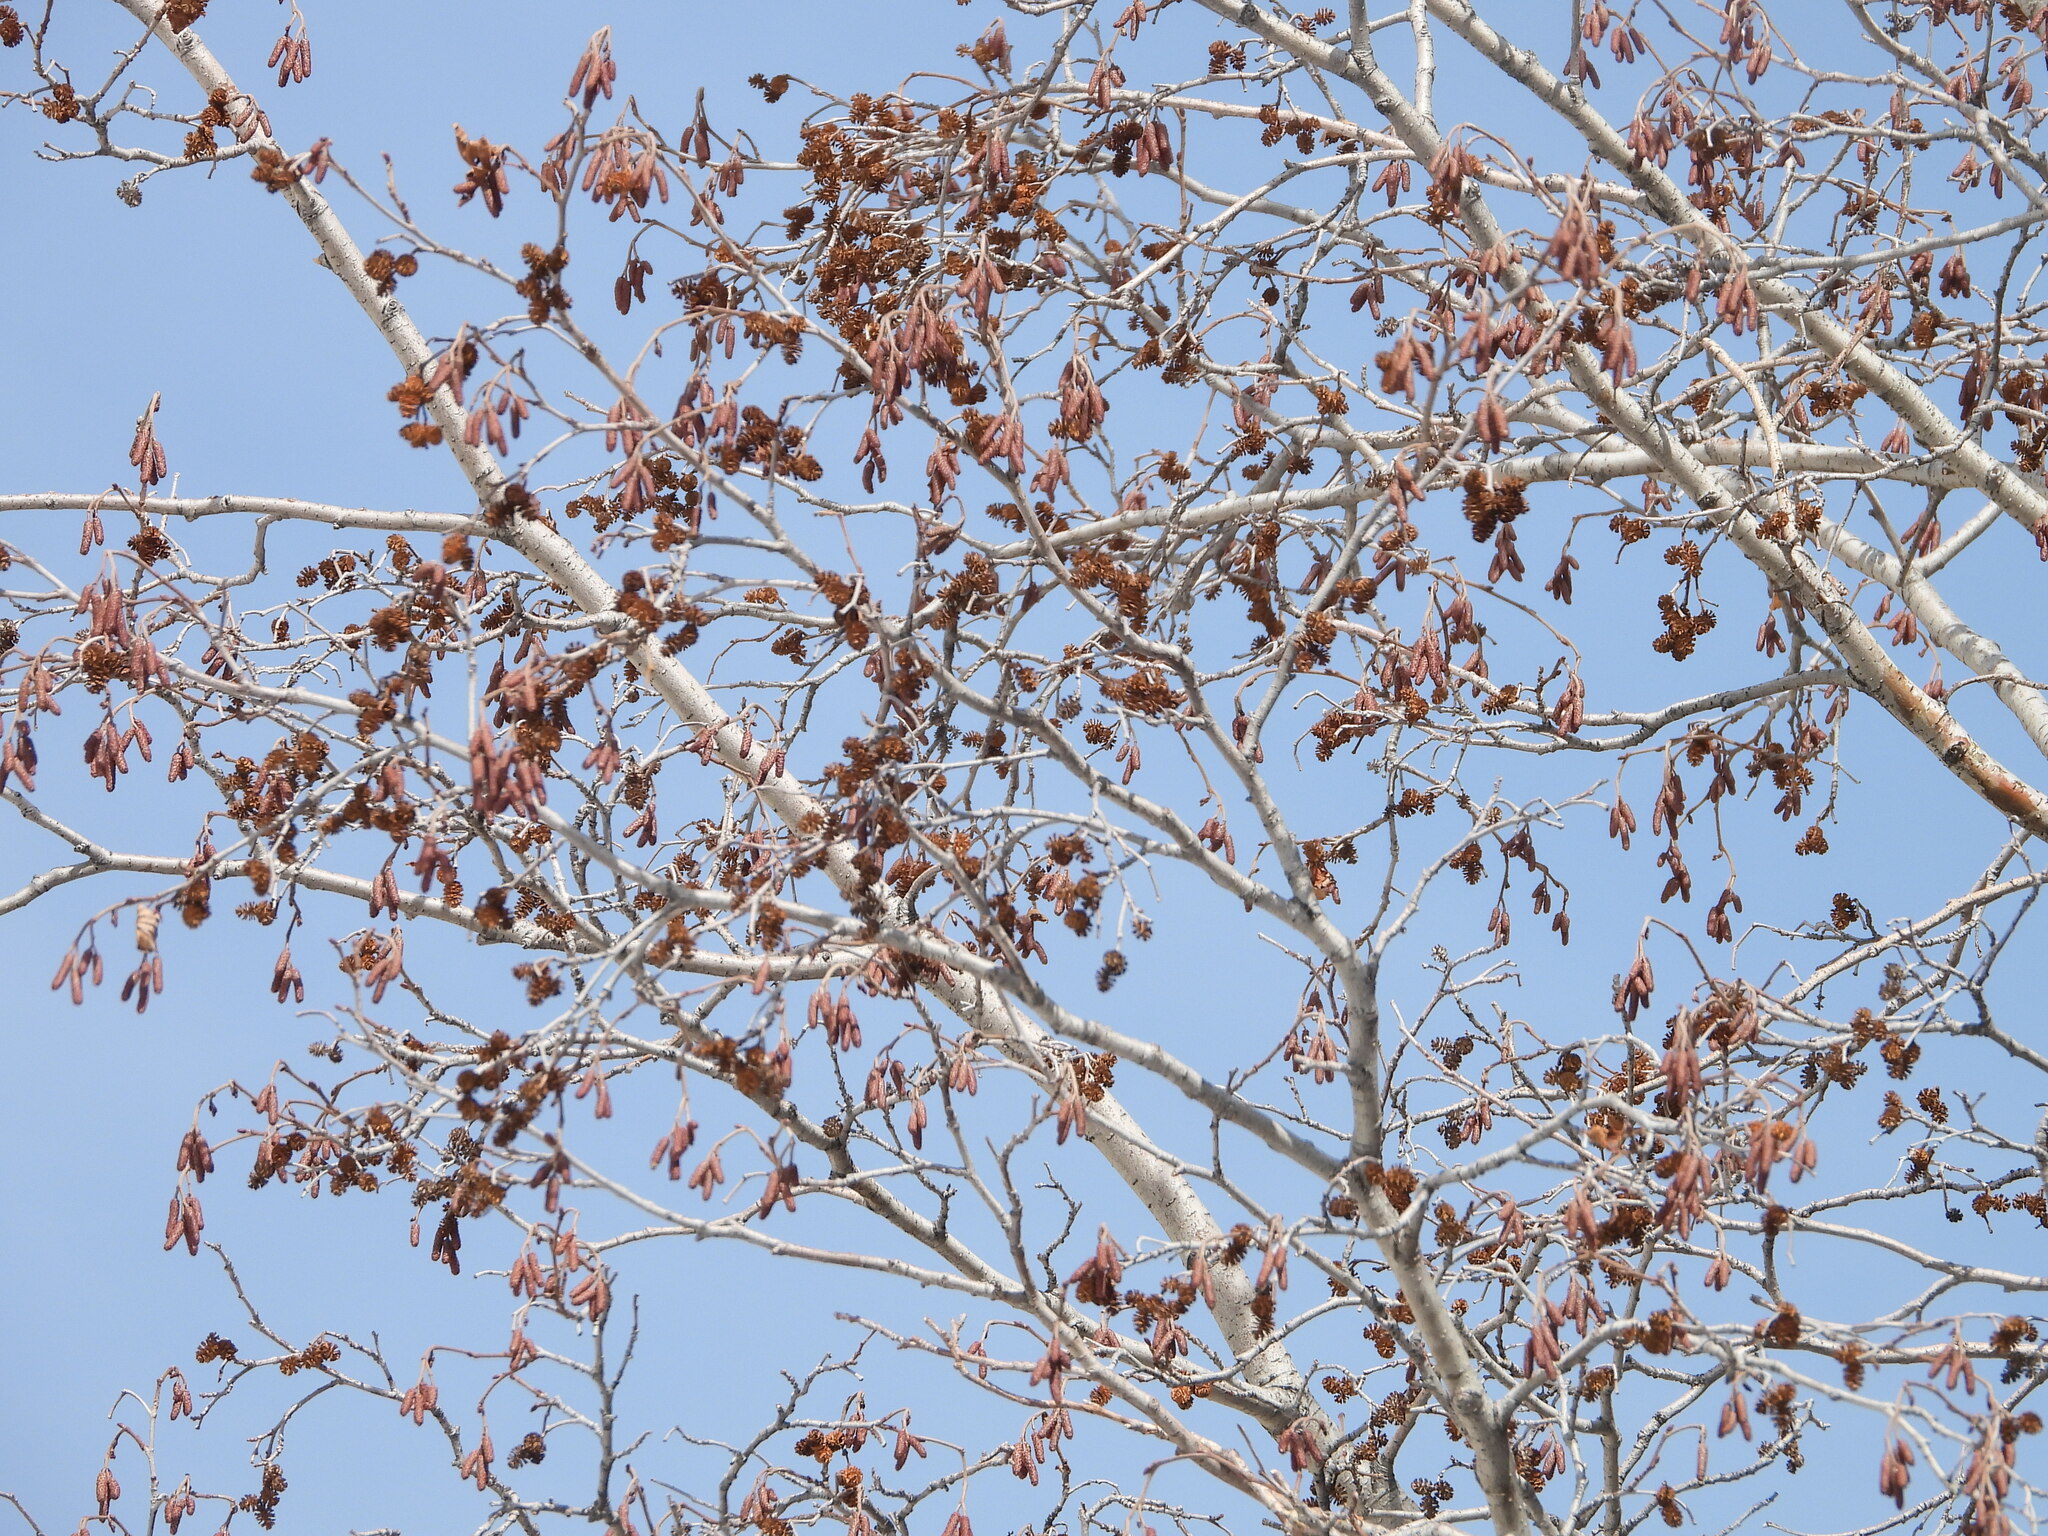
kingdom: Plantae
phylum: Tracheophyta
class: Magnoliopsida
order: Fagales
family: Betulaceae
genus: Alnus
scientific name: Alnus incana
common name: Grey alder
